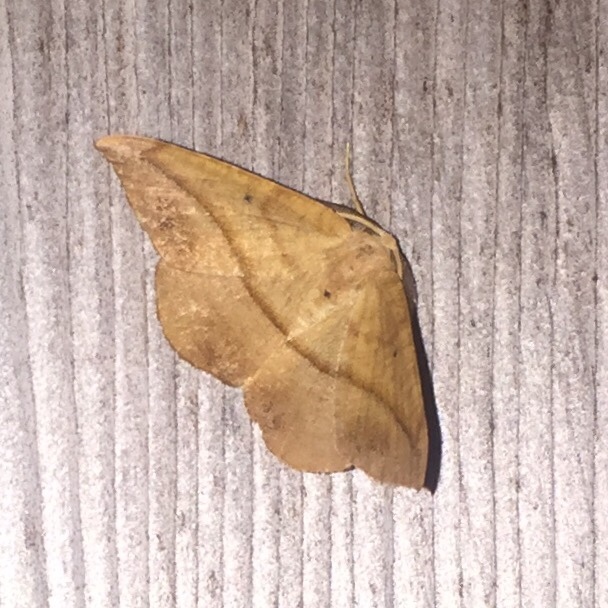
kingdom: Animalia
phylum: Arthropoda
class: Insecta
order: Lepidoptera
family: Geometridae
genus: Patalene
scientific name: Patalene olyzonaria
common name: Juniper geometer moth
